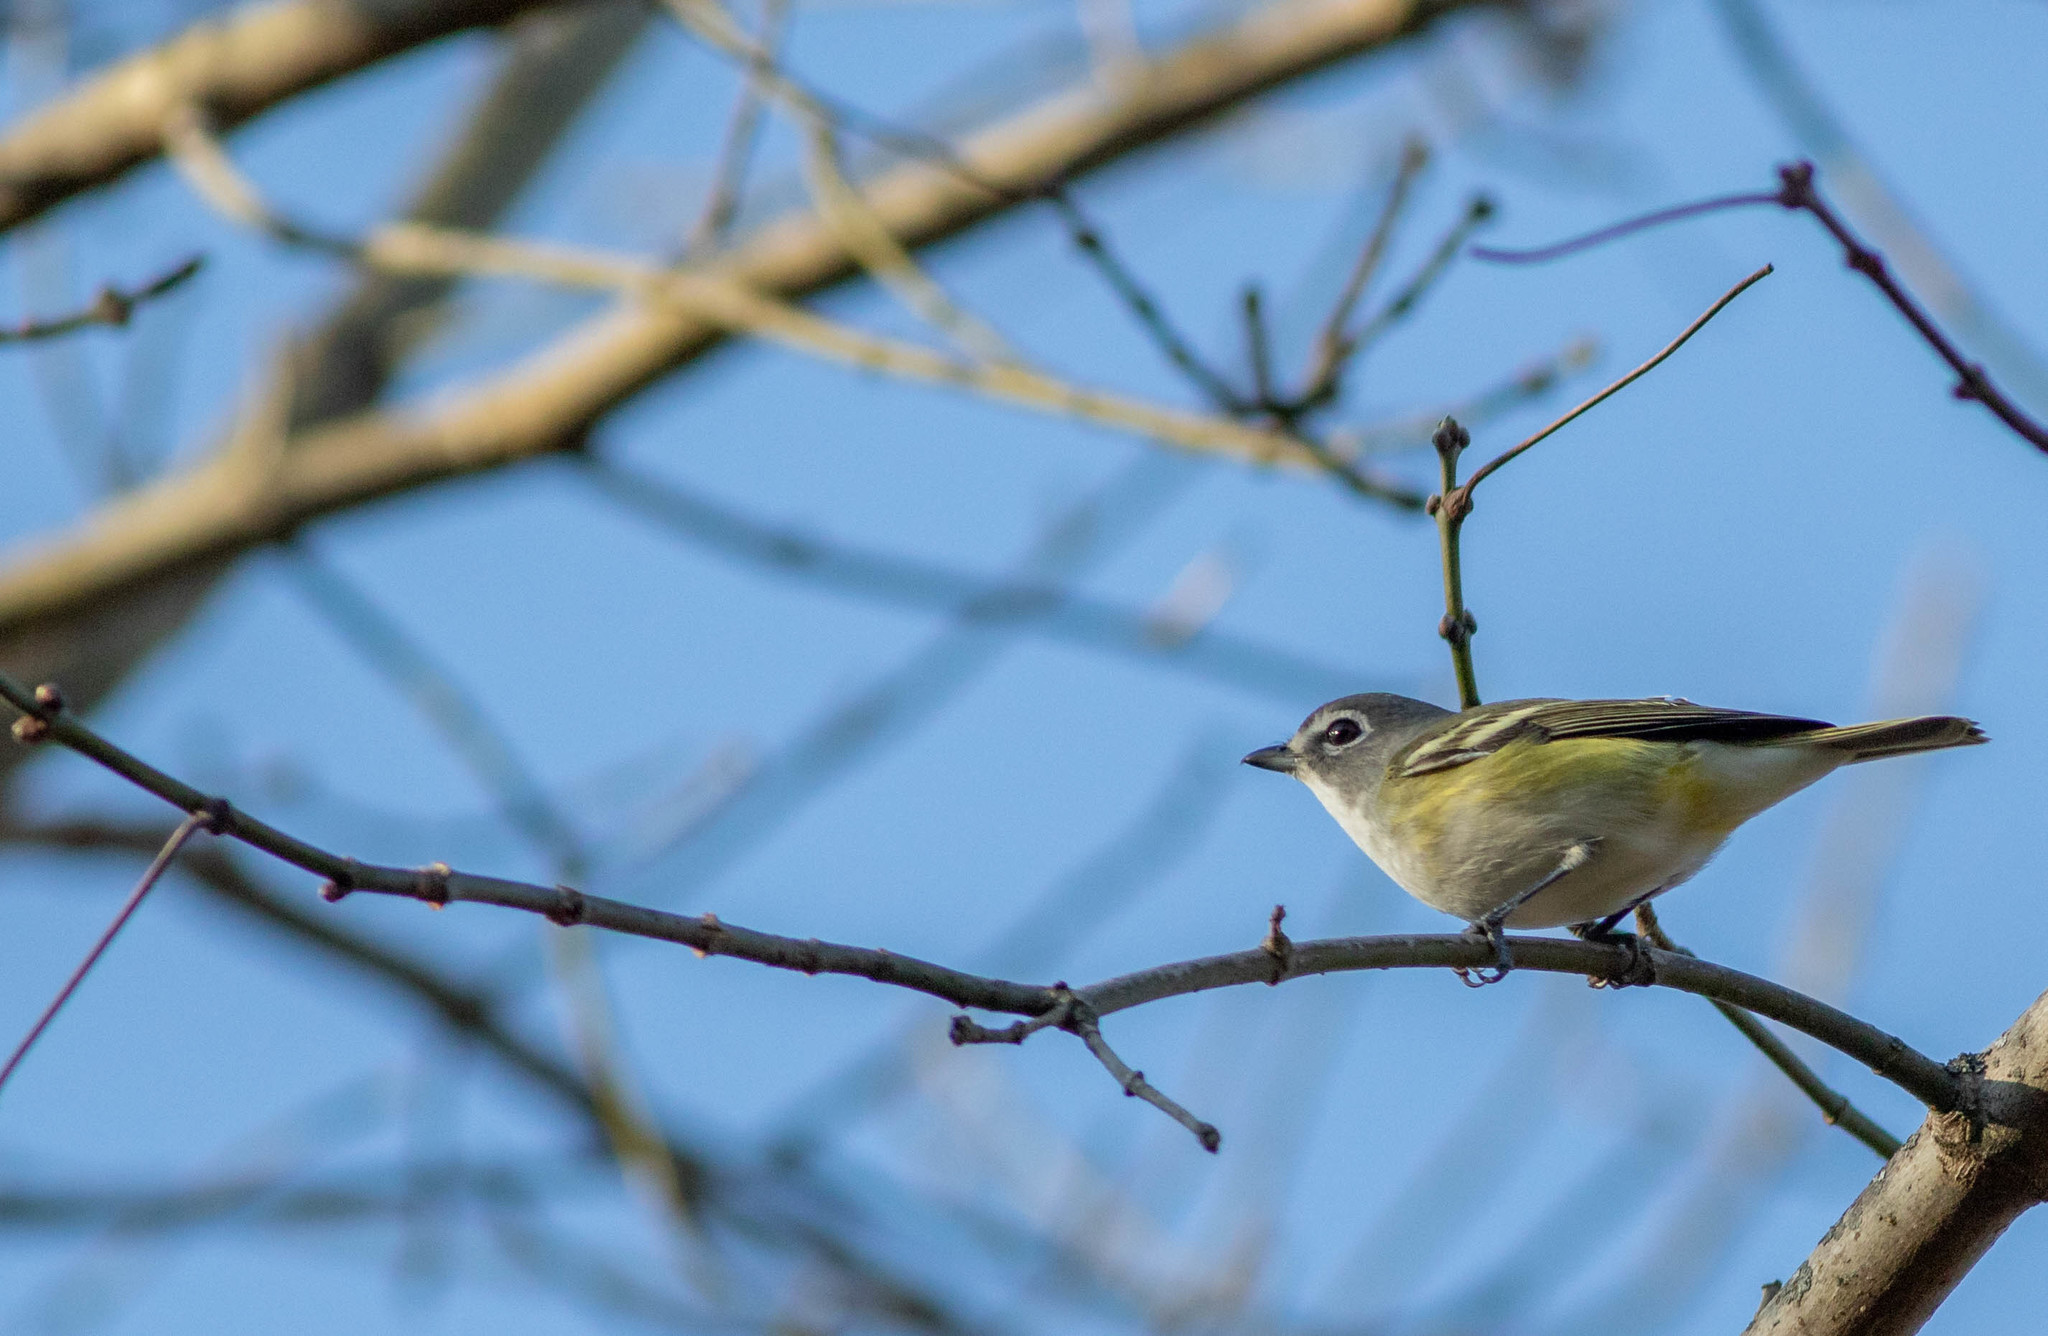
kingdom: Animalia
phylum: Chordata
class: Aves
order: Passeriformes
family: Vireonidae
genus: Vireo
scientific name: Vireo solitarius
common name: Blue-headed vireo
